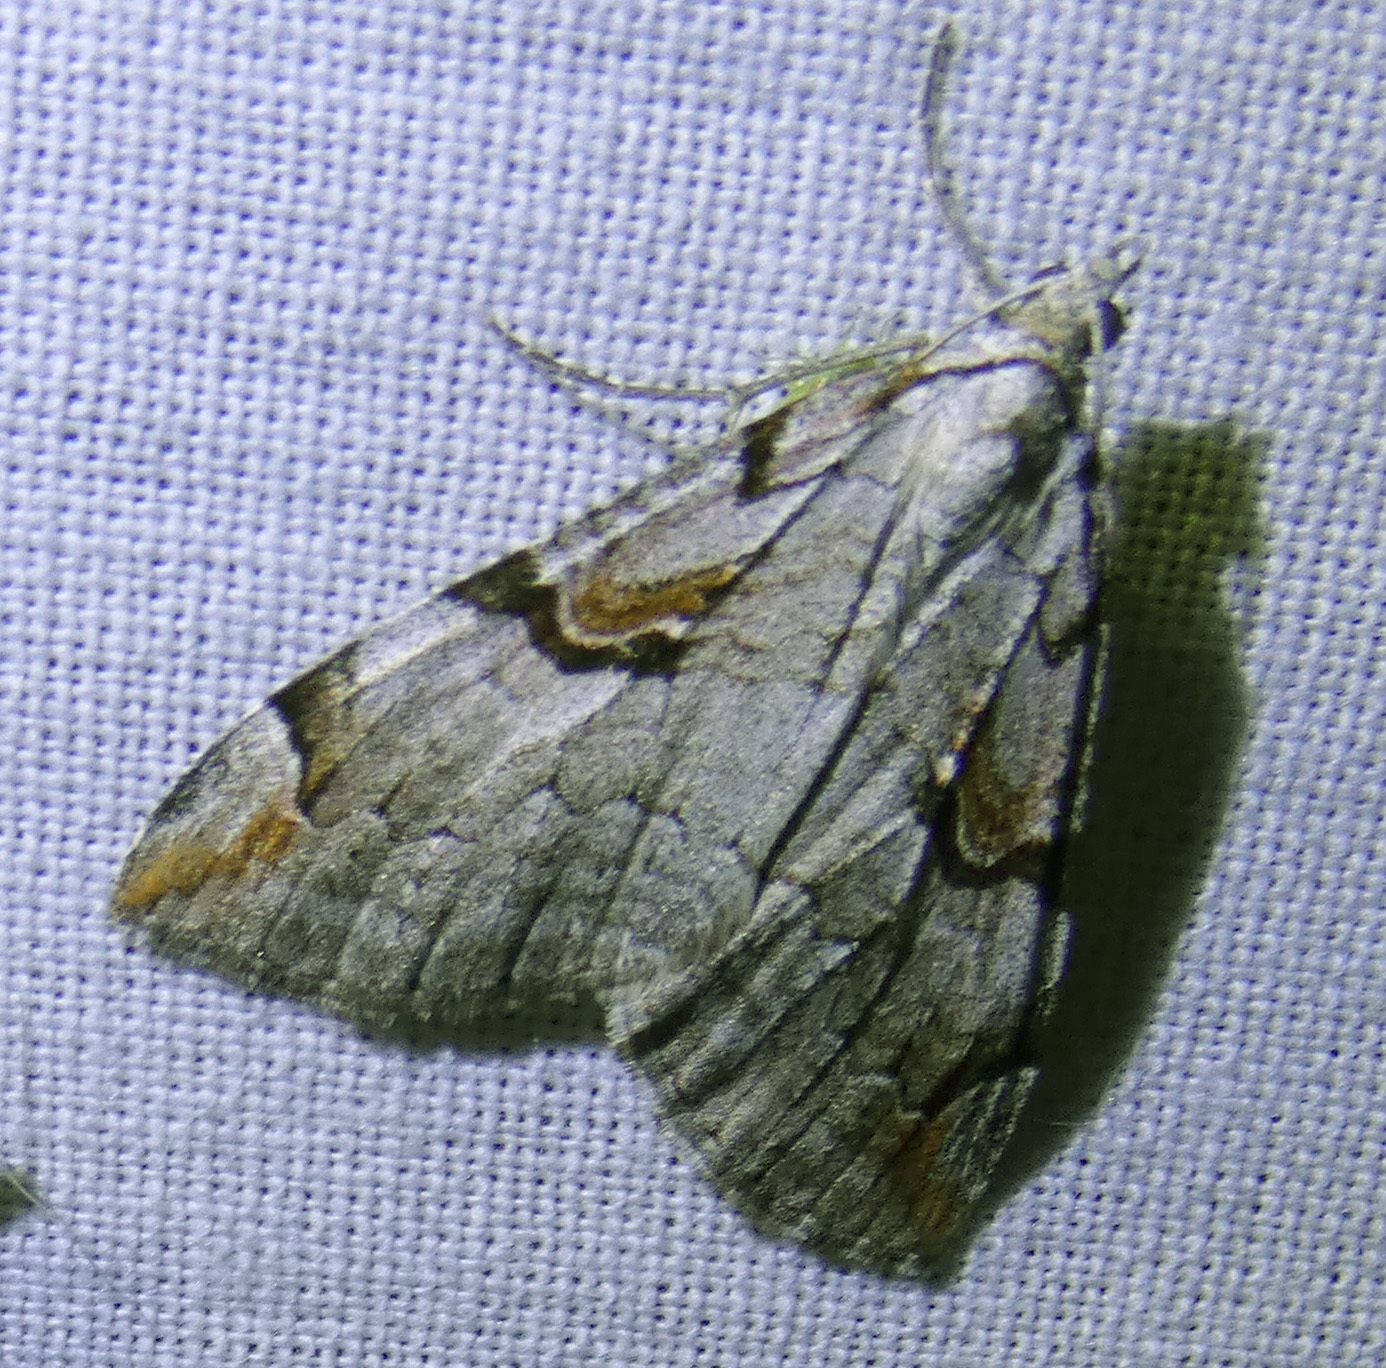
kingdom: Animalia
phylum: Arthropoda
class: Insecta
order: Lepidoptera
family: Geometridae
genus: Aplocera
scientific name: Aplocera praeformata
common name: Purple treble-bar
